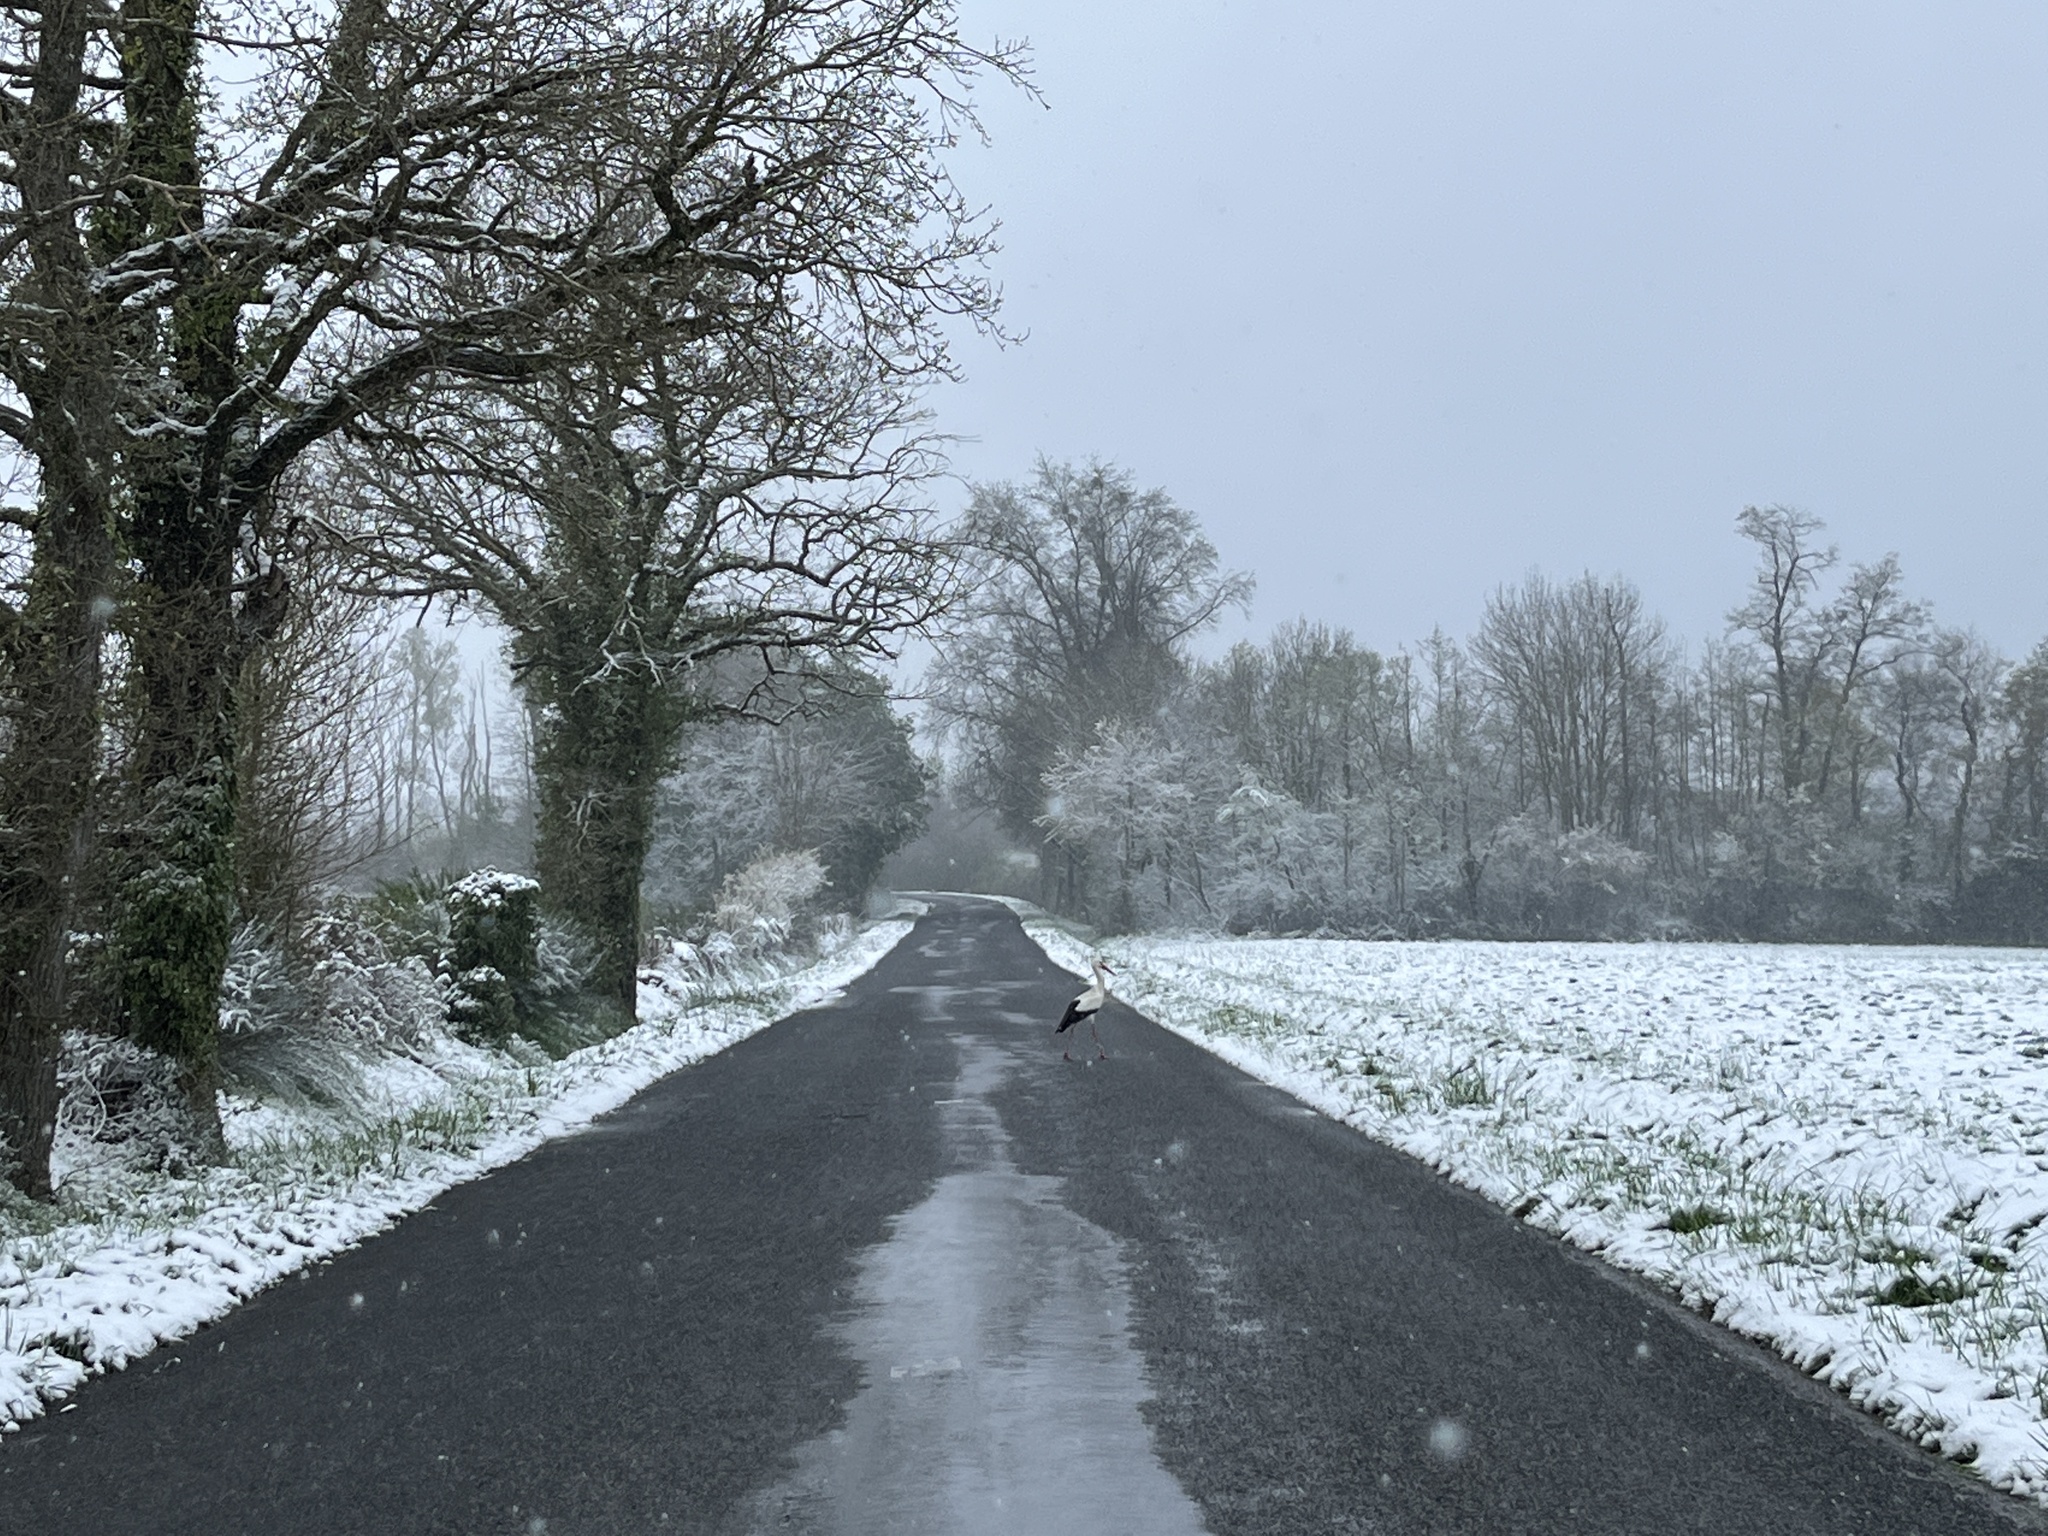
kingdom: Animalia
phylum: Chordata
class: Aves
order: Ciconiiformes
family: Ciconiidae
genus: Ciconia
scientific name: Ciconia ciconia
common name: White stork
